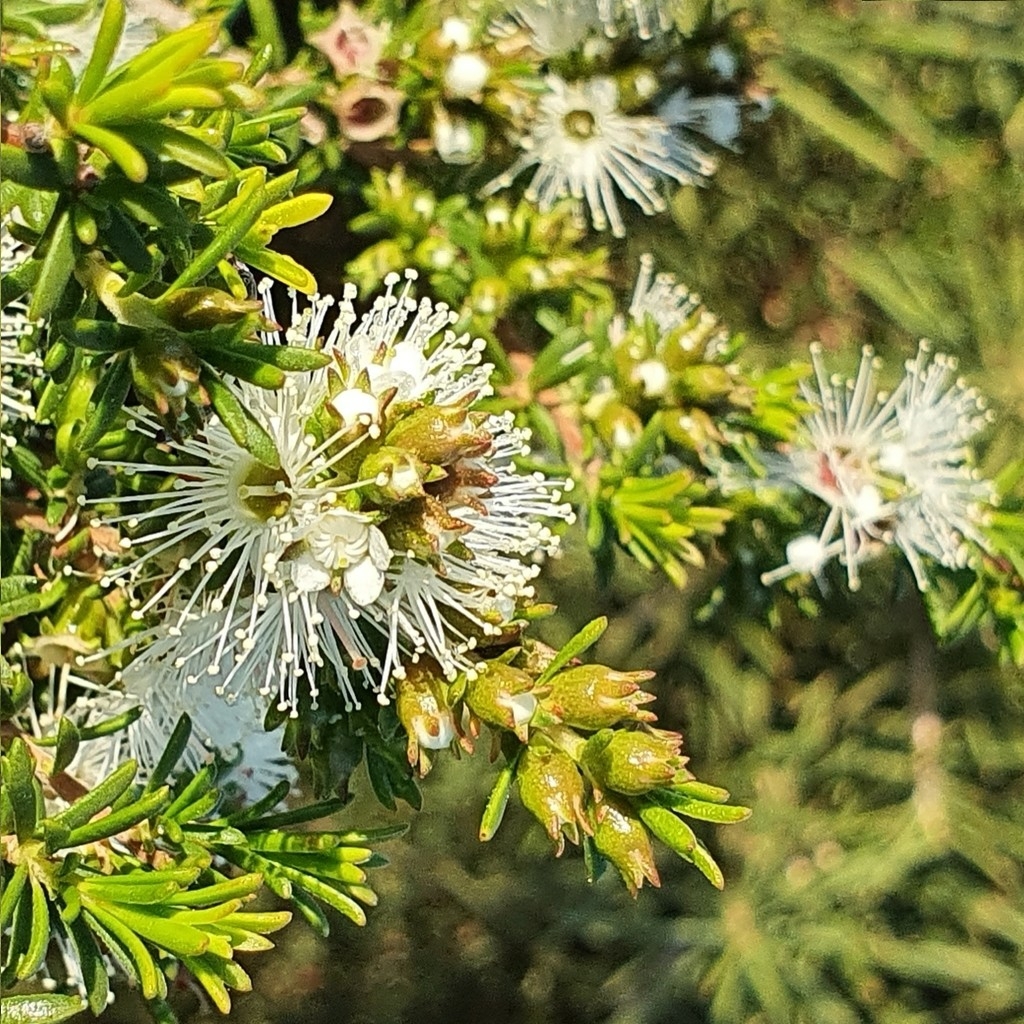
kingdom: Plantae
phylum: Tracheophyta
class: Magnoliopsida
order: Myrtales
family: Myrtaceae
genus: Kunzea
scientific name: Kunzea ambigua
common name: Tickbush
